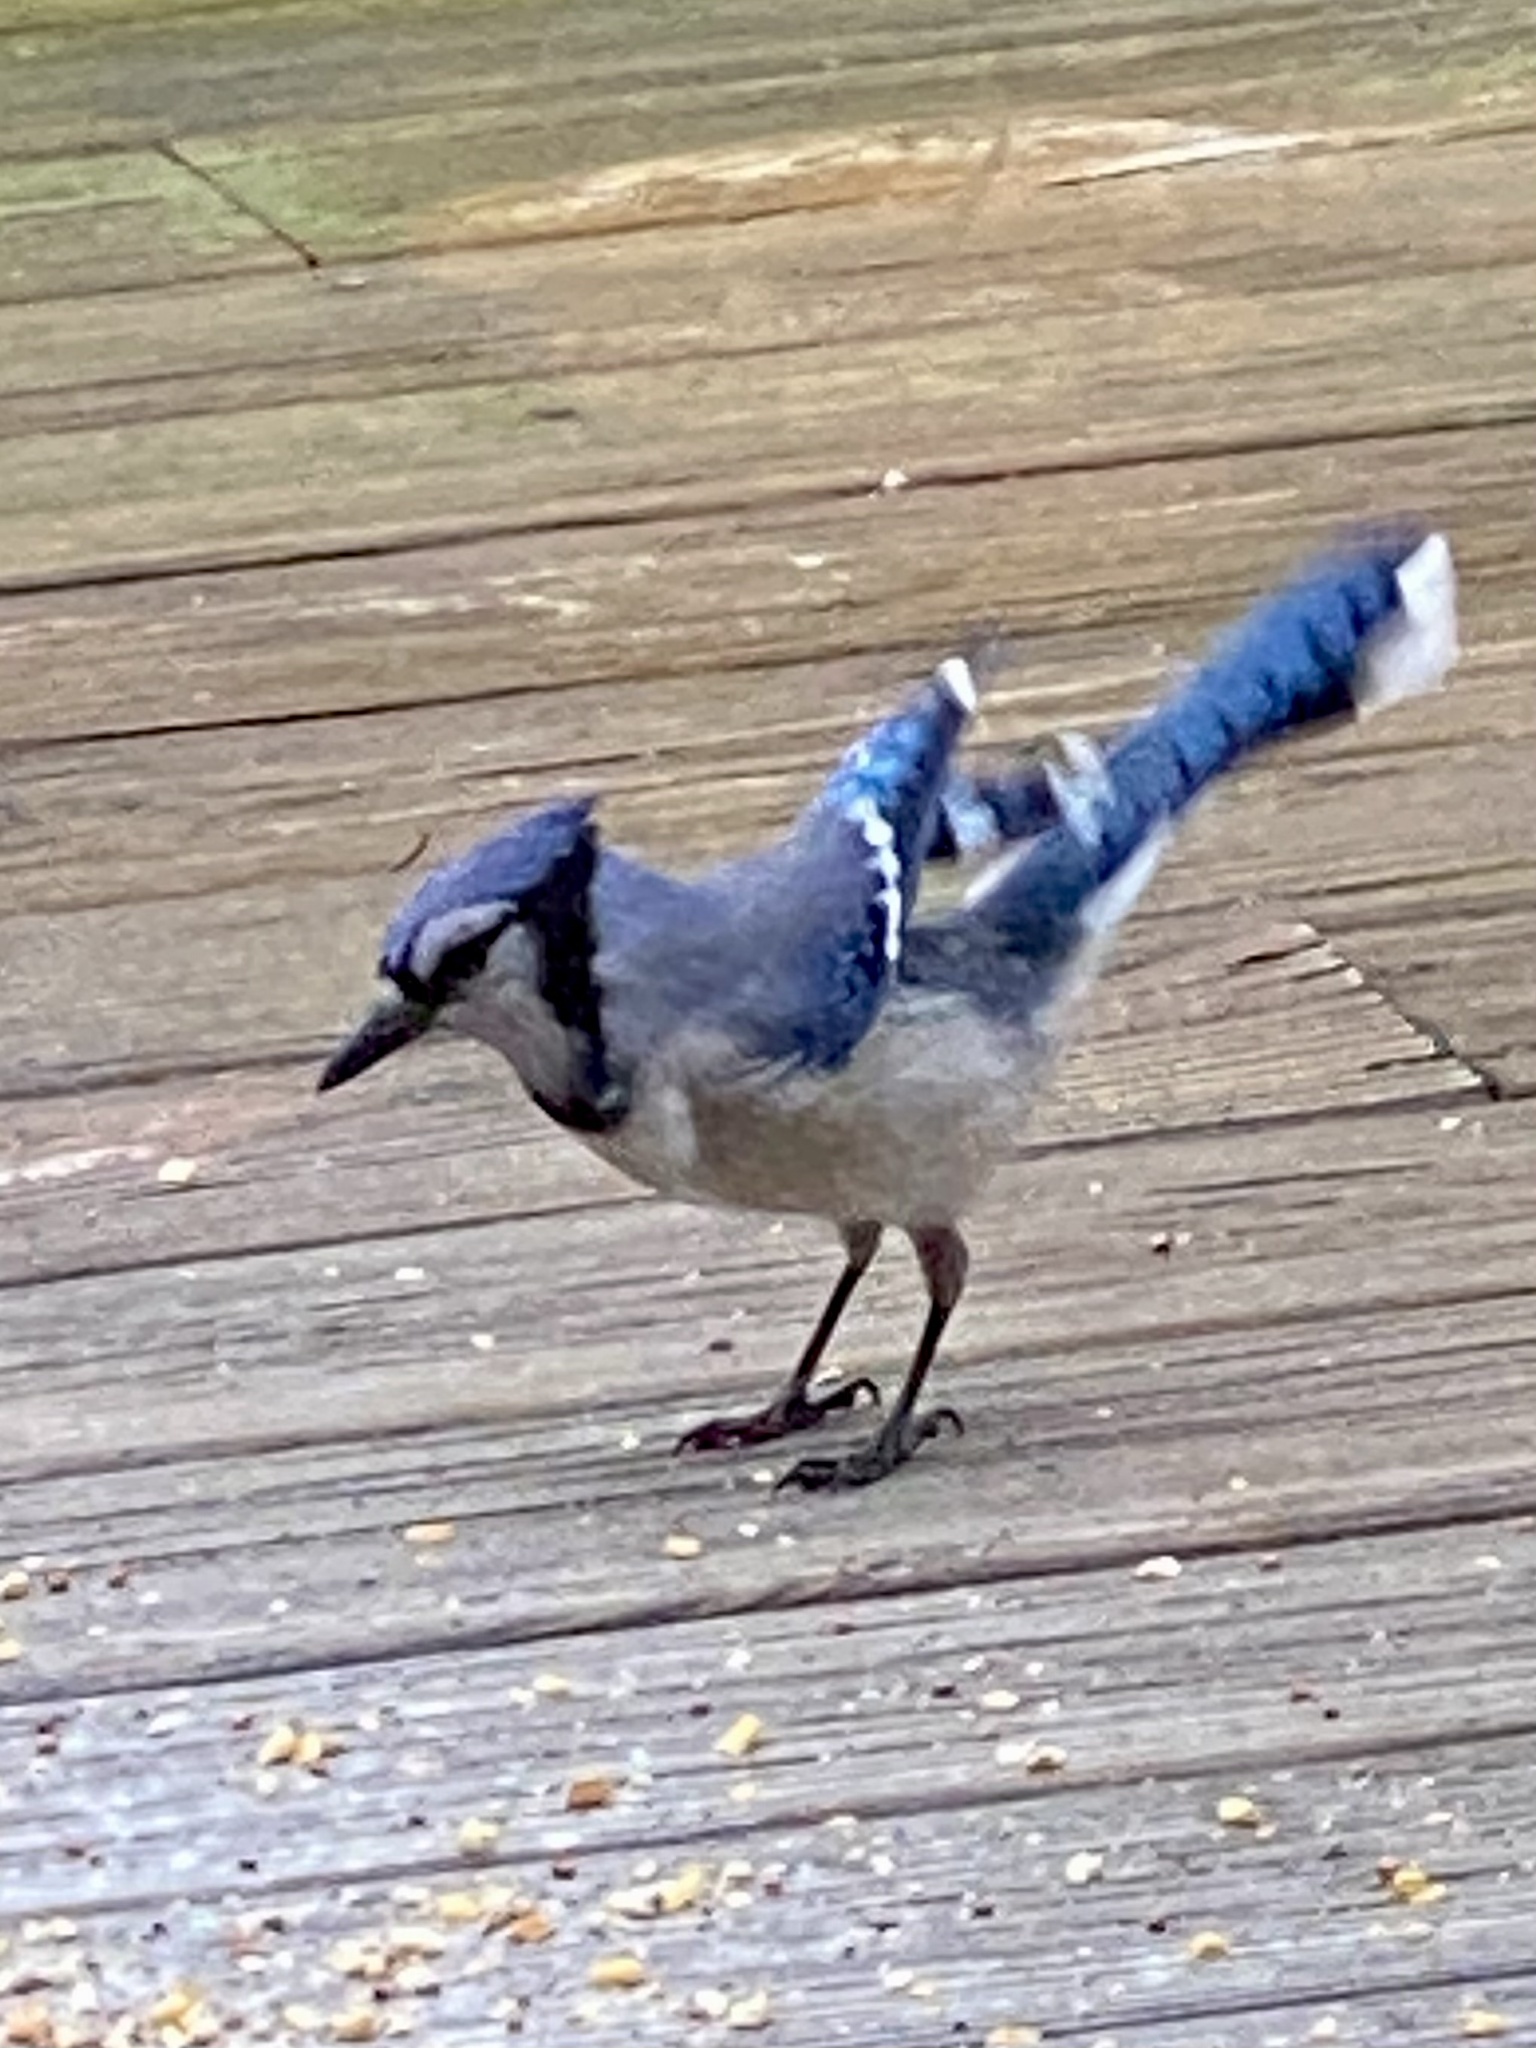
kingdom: Animalia
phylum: Chordata
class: Aves
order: Passeriformes
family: Corvidae
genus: Cyanocitta
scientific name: Cyanocitta cristata
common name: Blue jay
